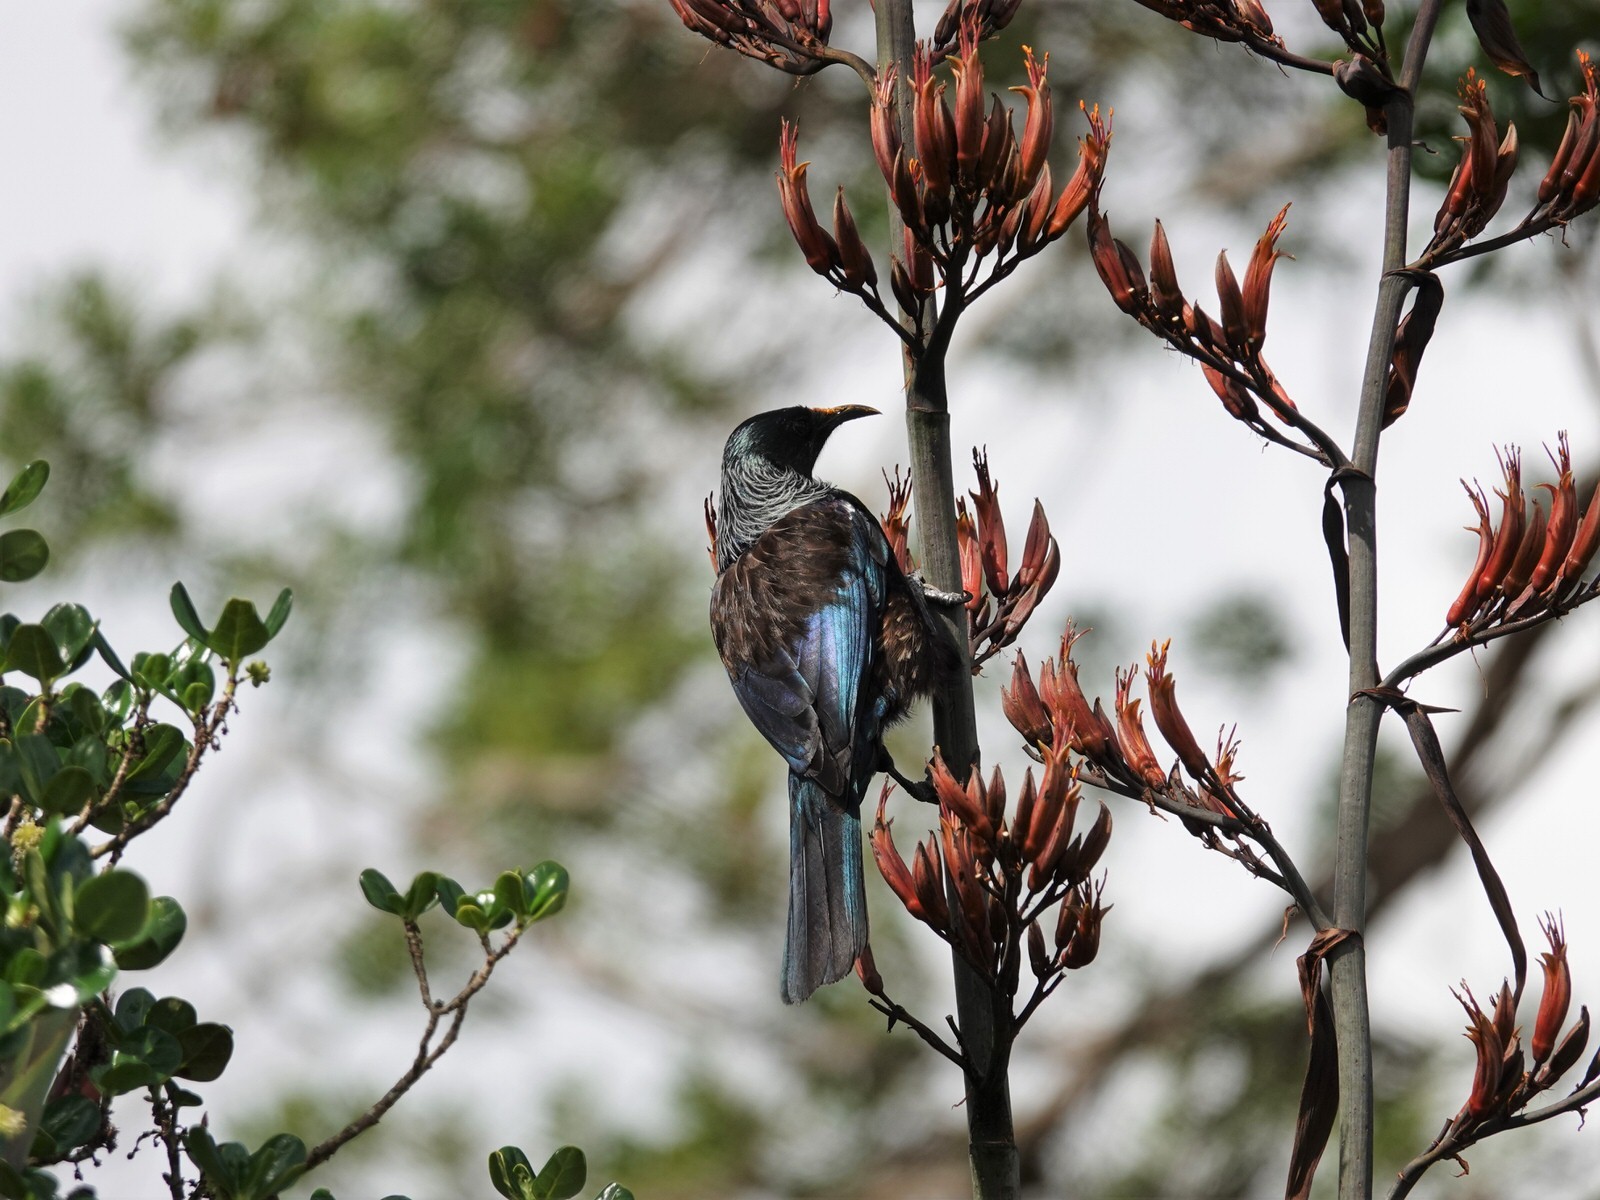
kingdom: Animalia
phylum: Chordata
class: Aves
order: Passeriformes
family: Meliphagidae
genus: Prosthemadera
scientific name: Prosthemadera novaeseelandiae
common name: Tui
